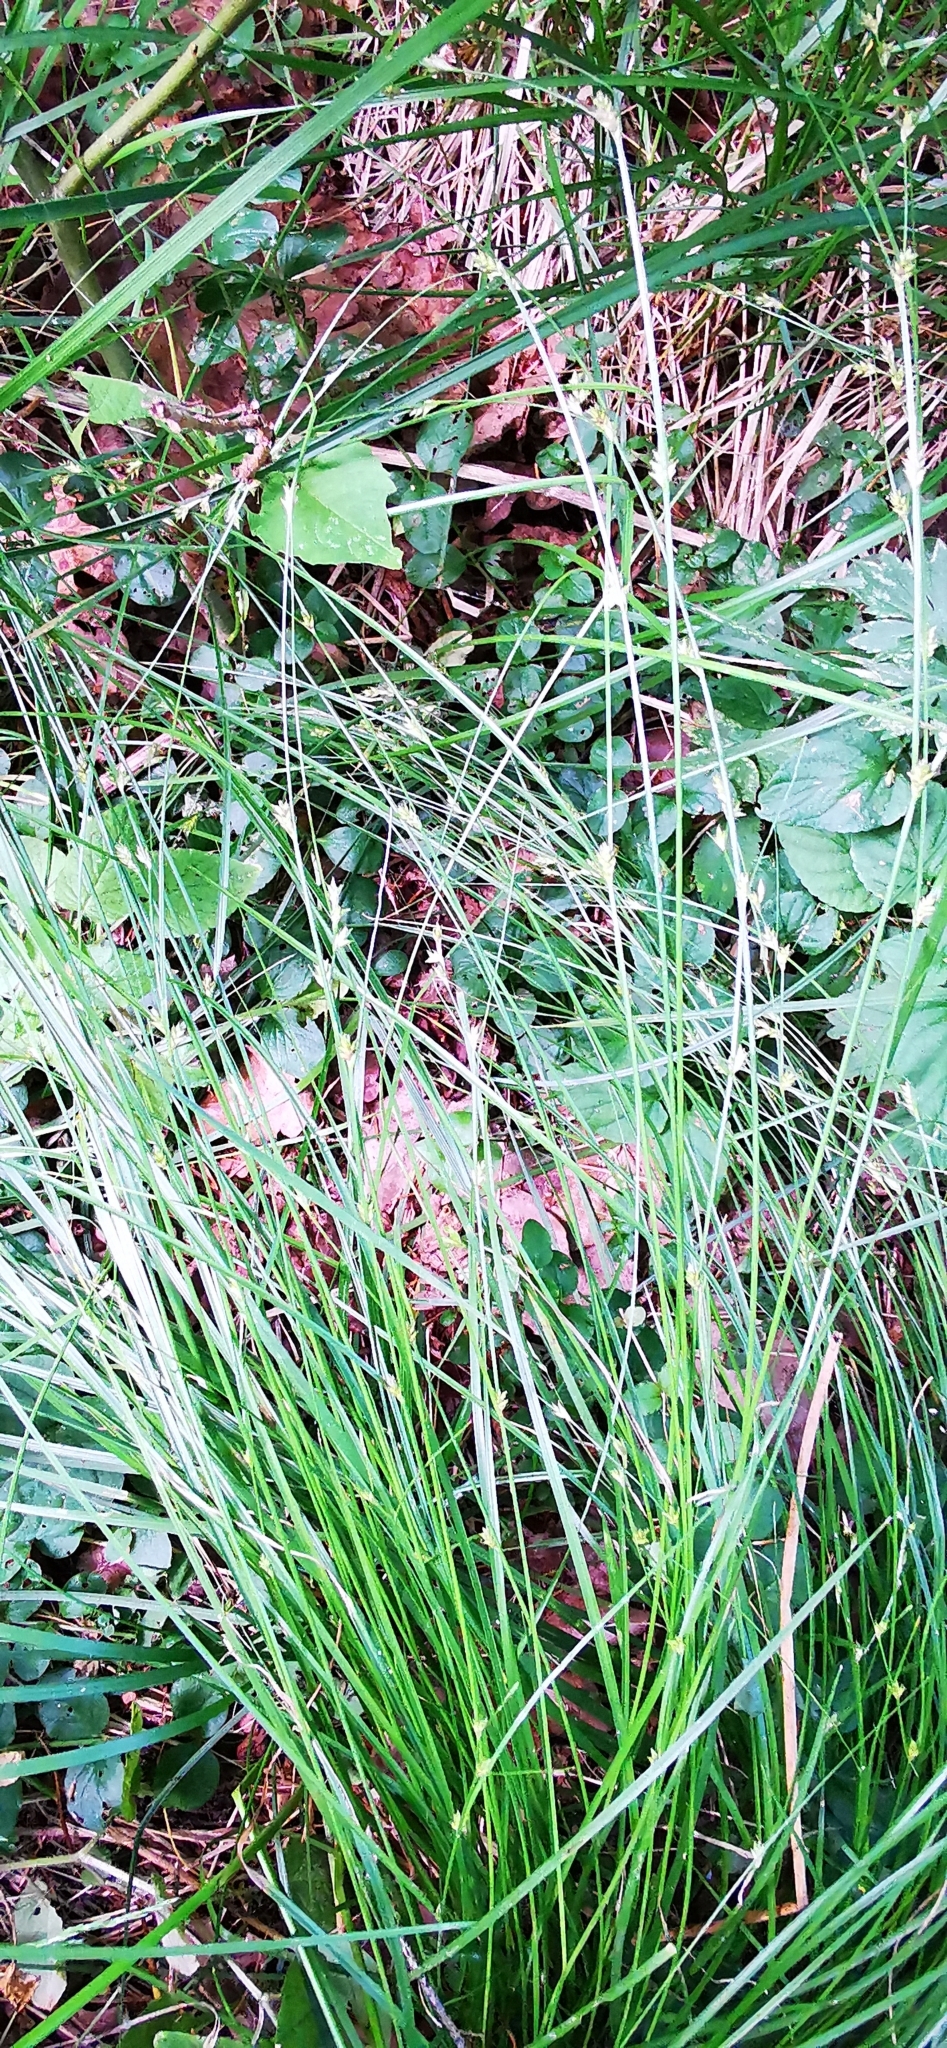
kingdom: Plantae
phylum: Tracheophyta
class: Liliopsida
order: Poales
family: Cyperaceae
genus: Carex
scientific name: Carex remota
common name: Remote sedge
